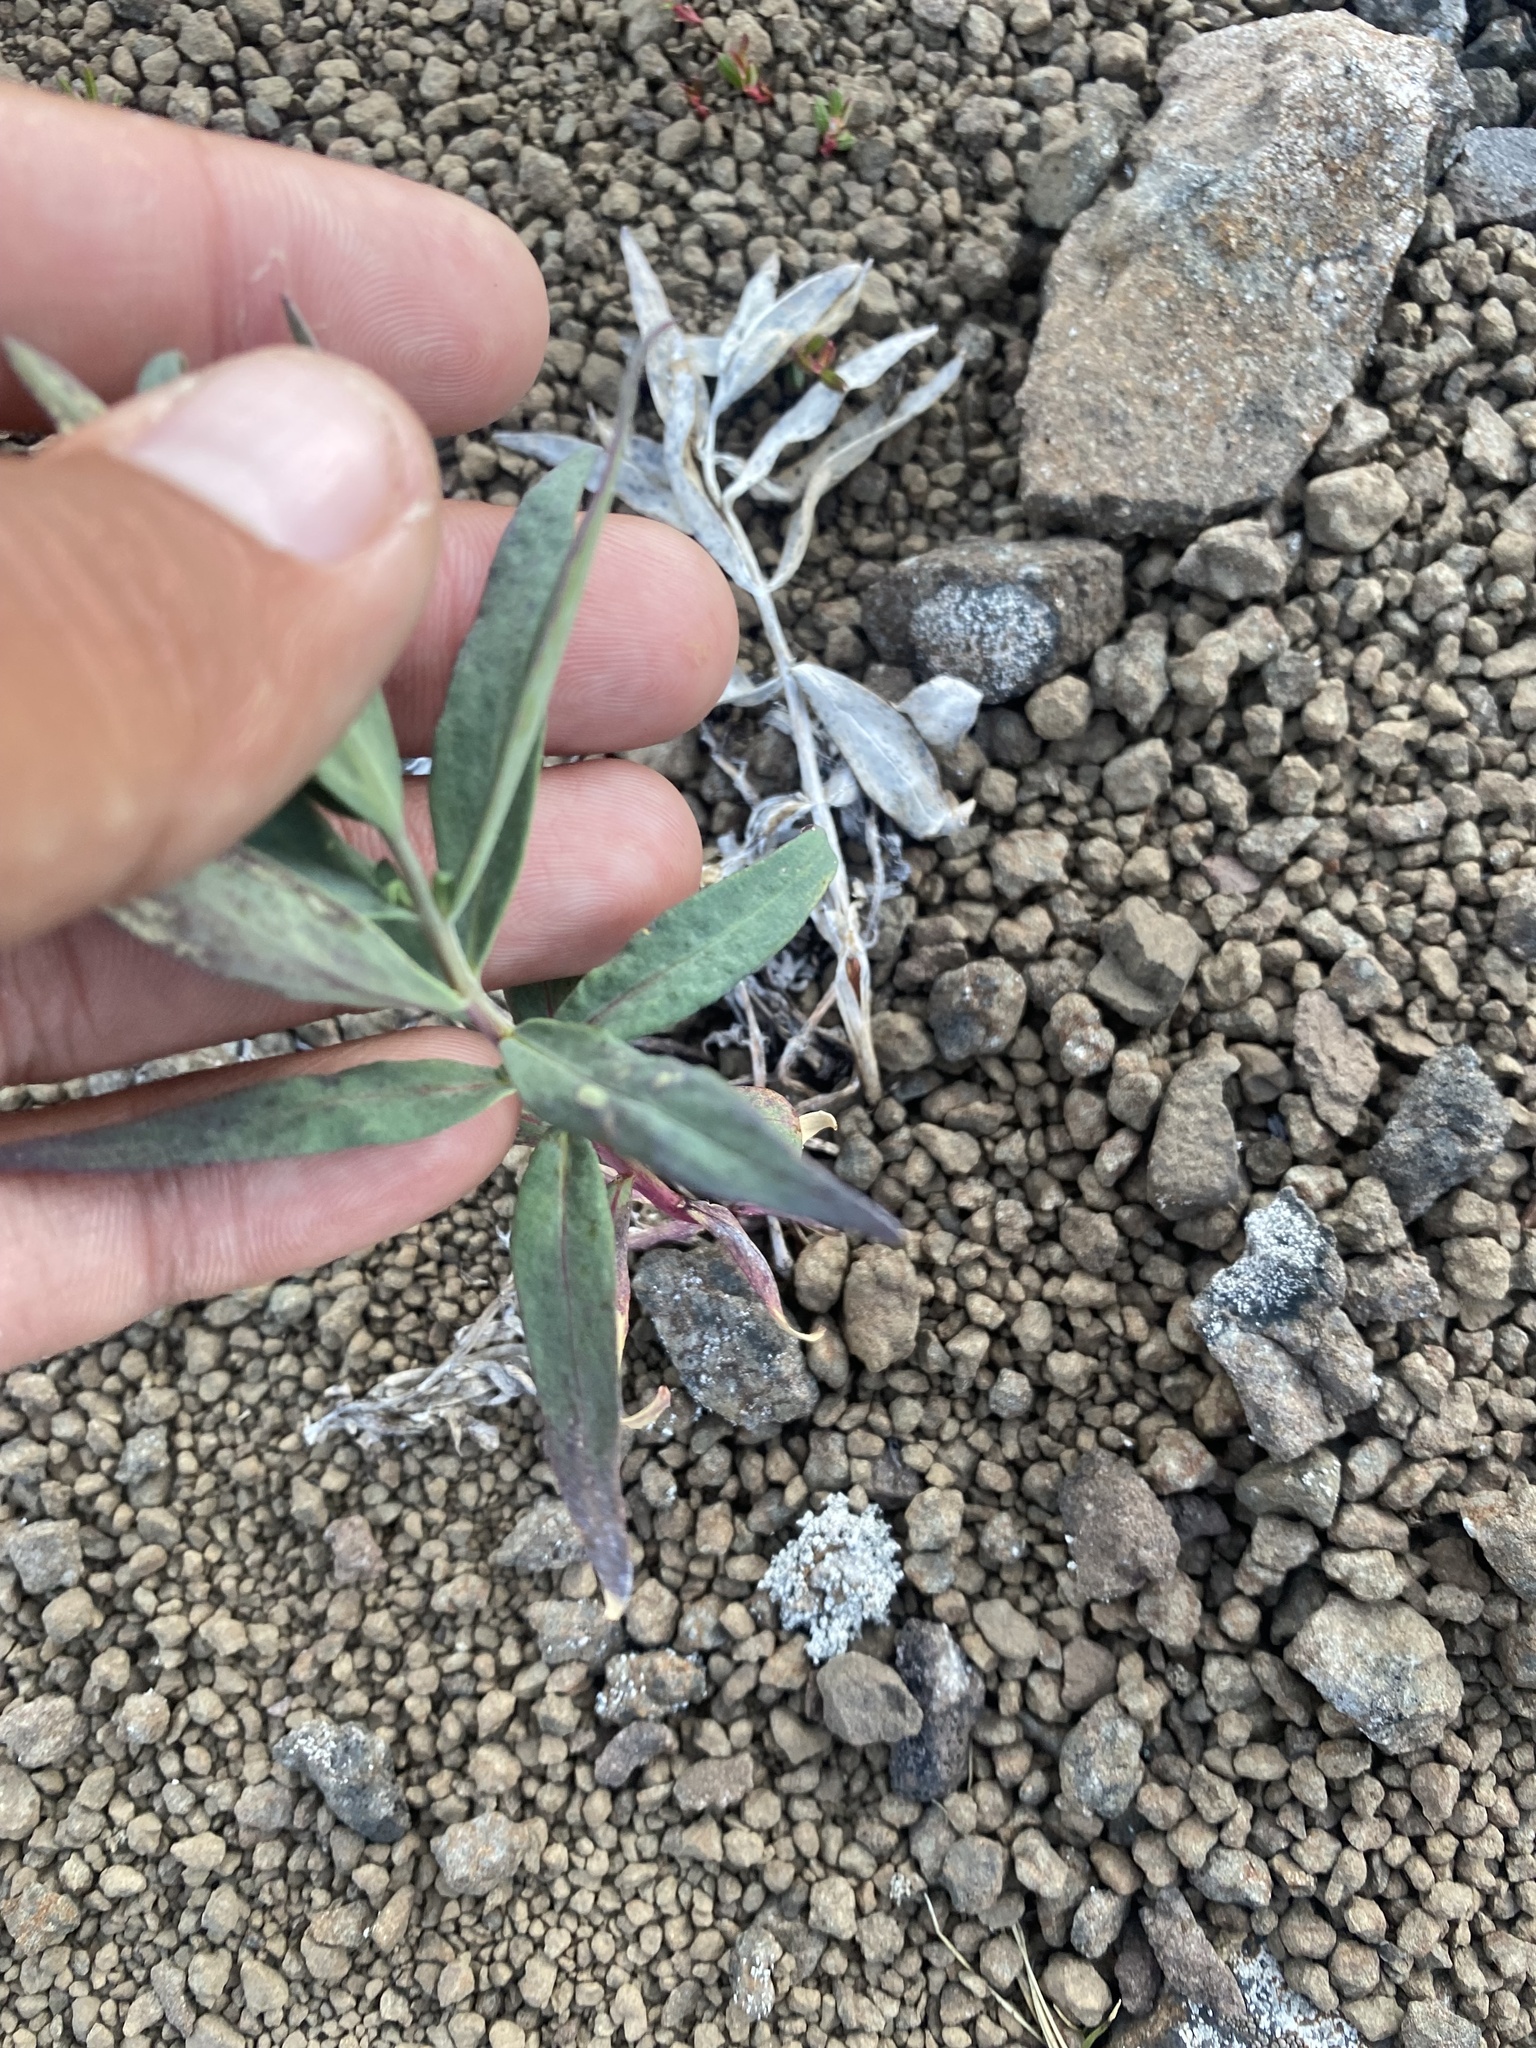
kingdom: Plantae
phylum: Tracheophyta
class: Magnoliopsida
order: Myrtales
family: Onagraceae
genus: Chamaenerion
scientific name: Chamaenerion latifolium
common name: Dwarf fireweed
